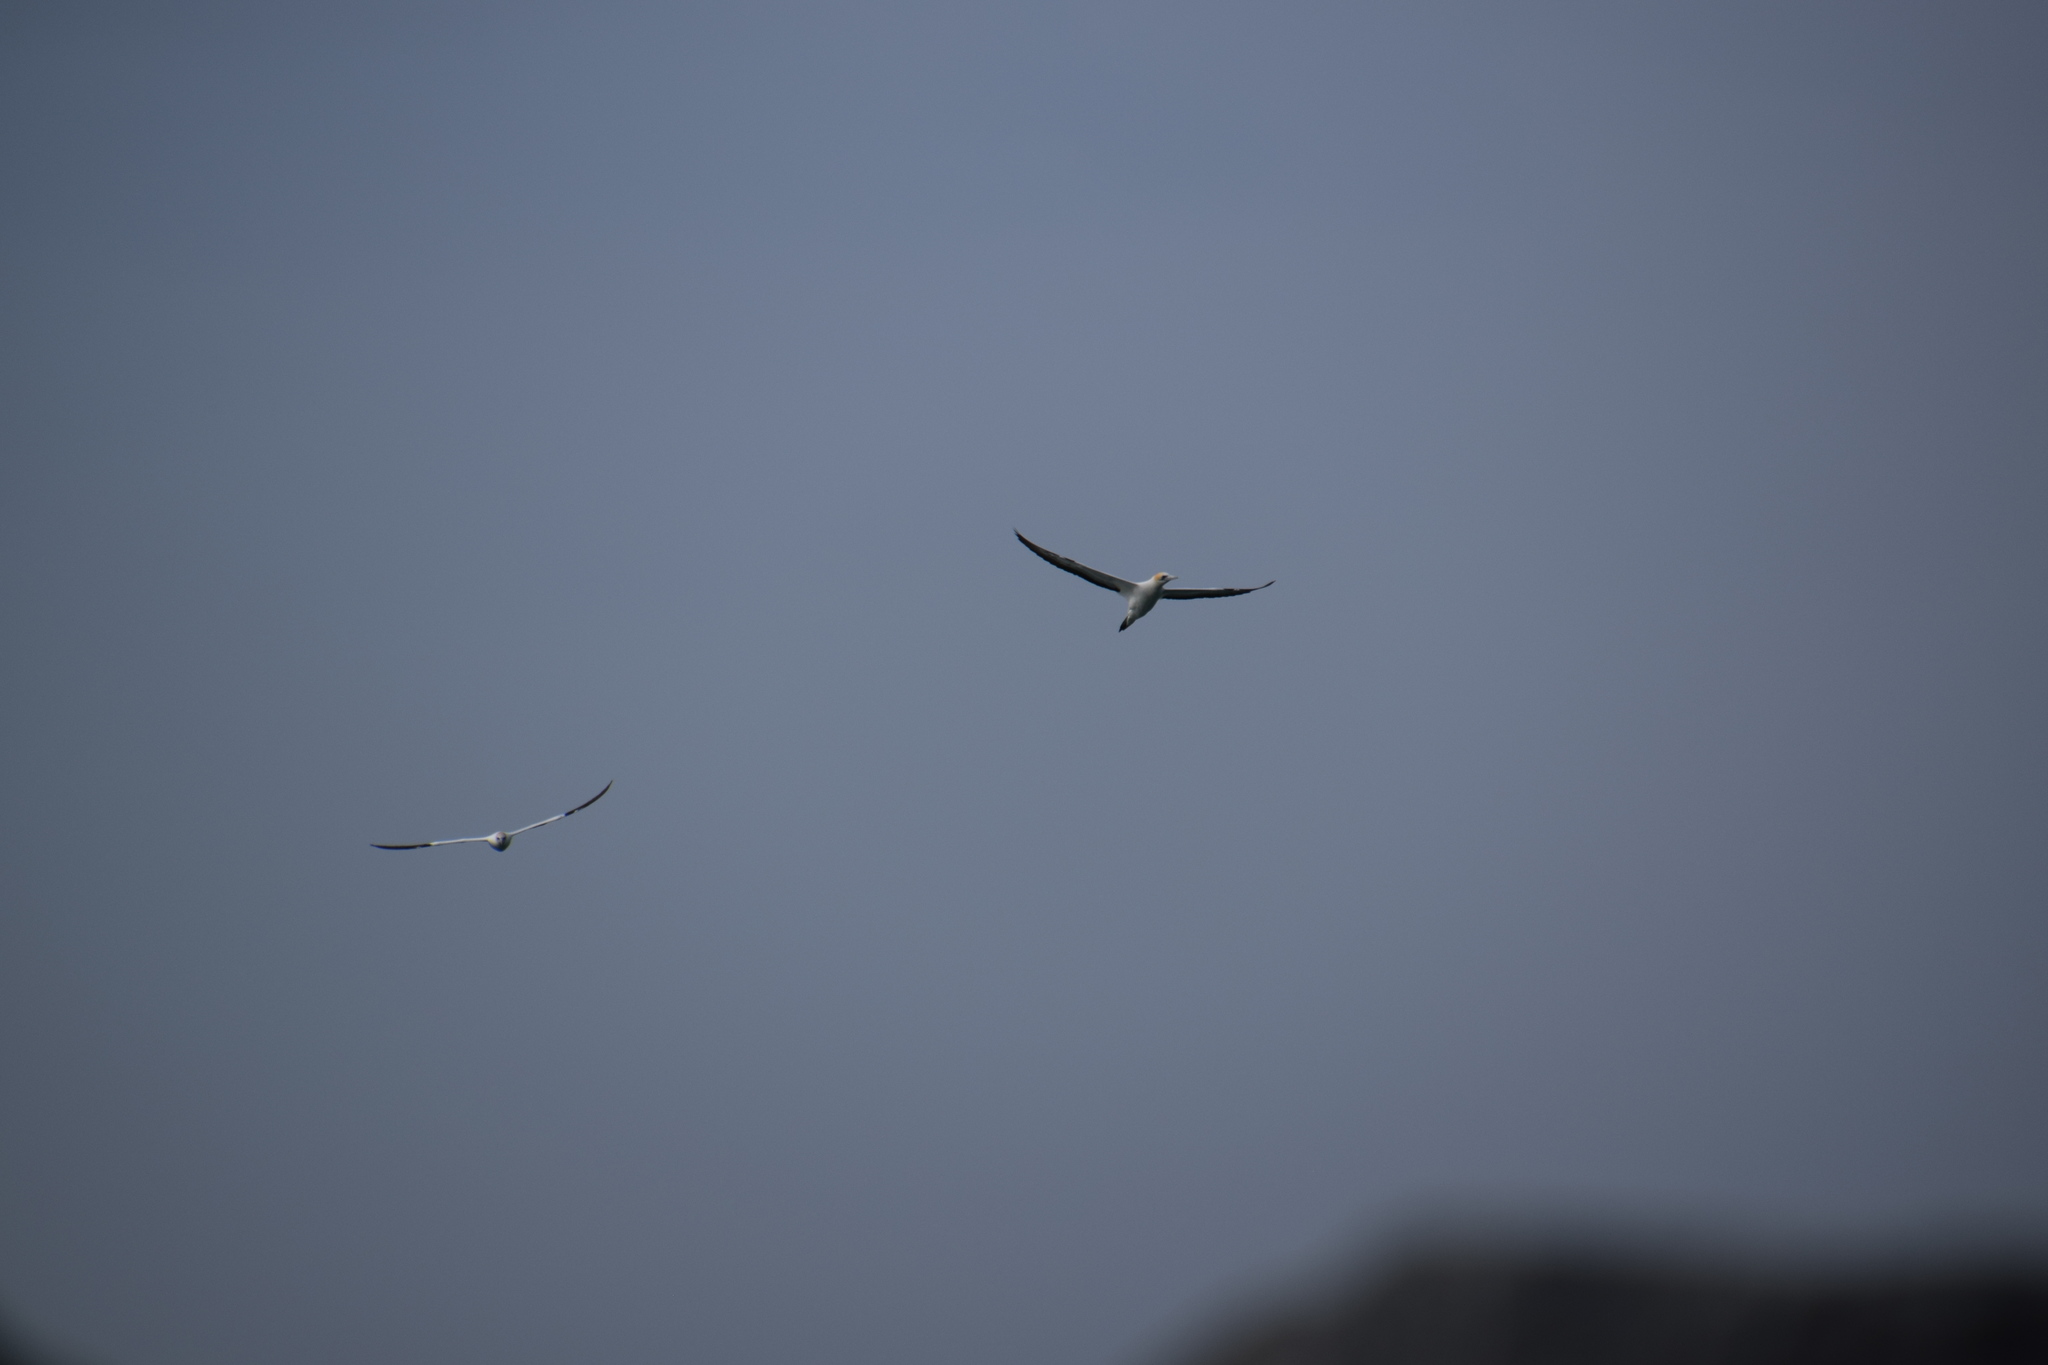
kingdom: Animalia
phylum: Chordata
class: Aves
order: Suliformes
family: Sulidae
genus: Morus
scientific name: Morus serrator
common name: Australasian gannet
